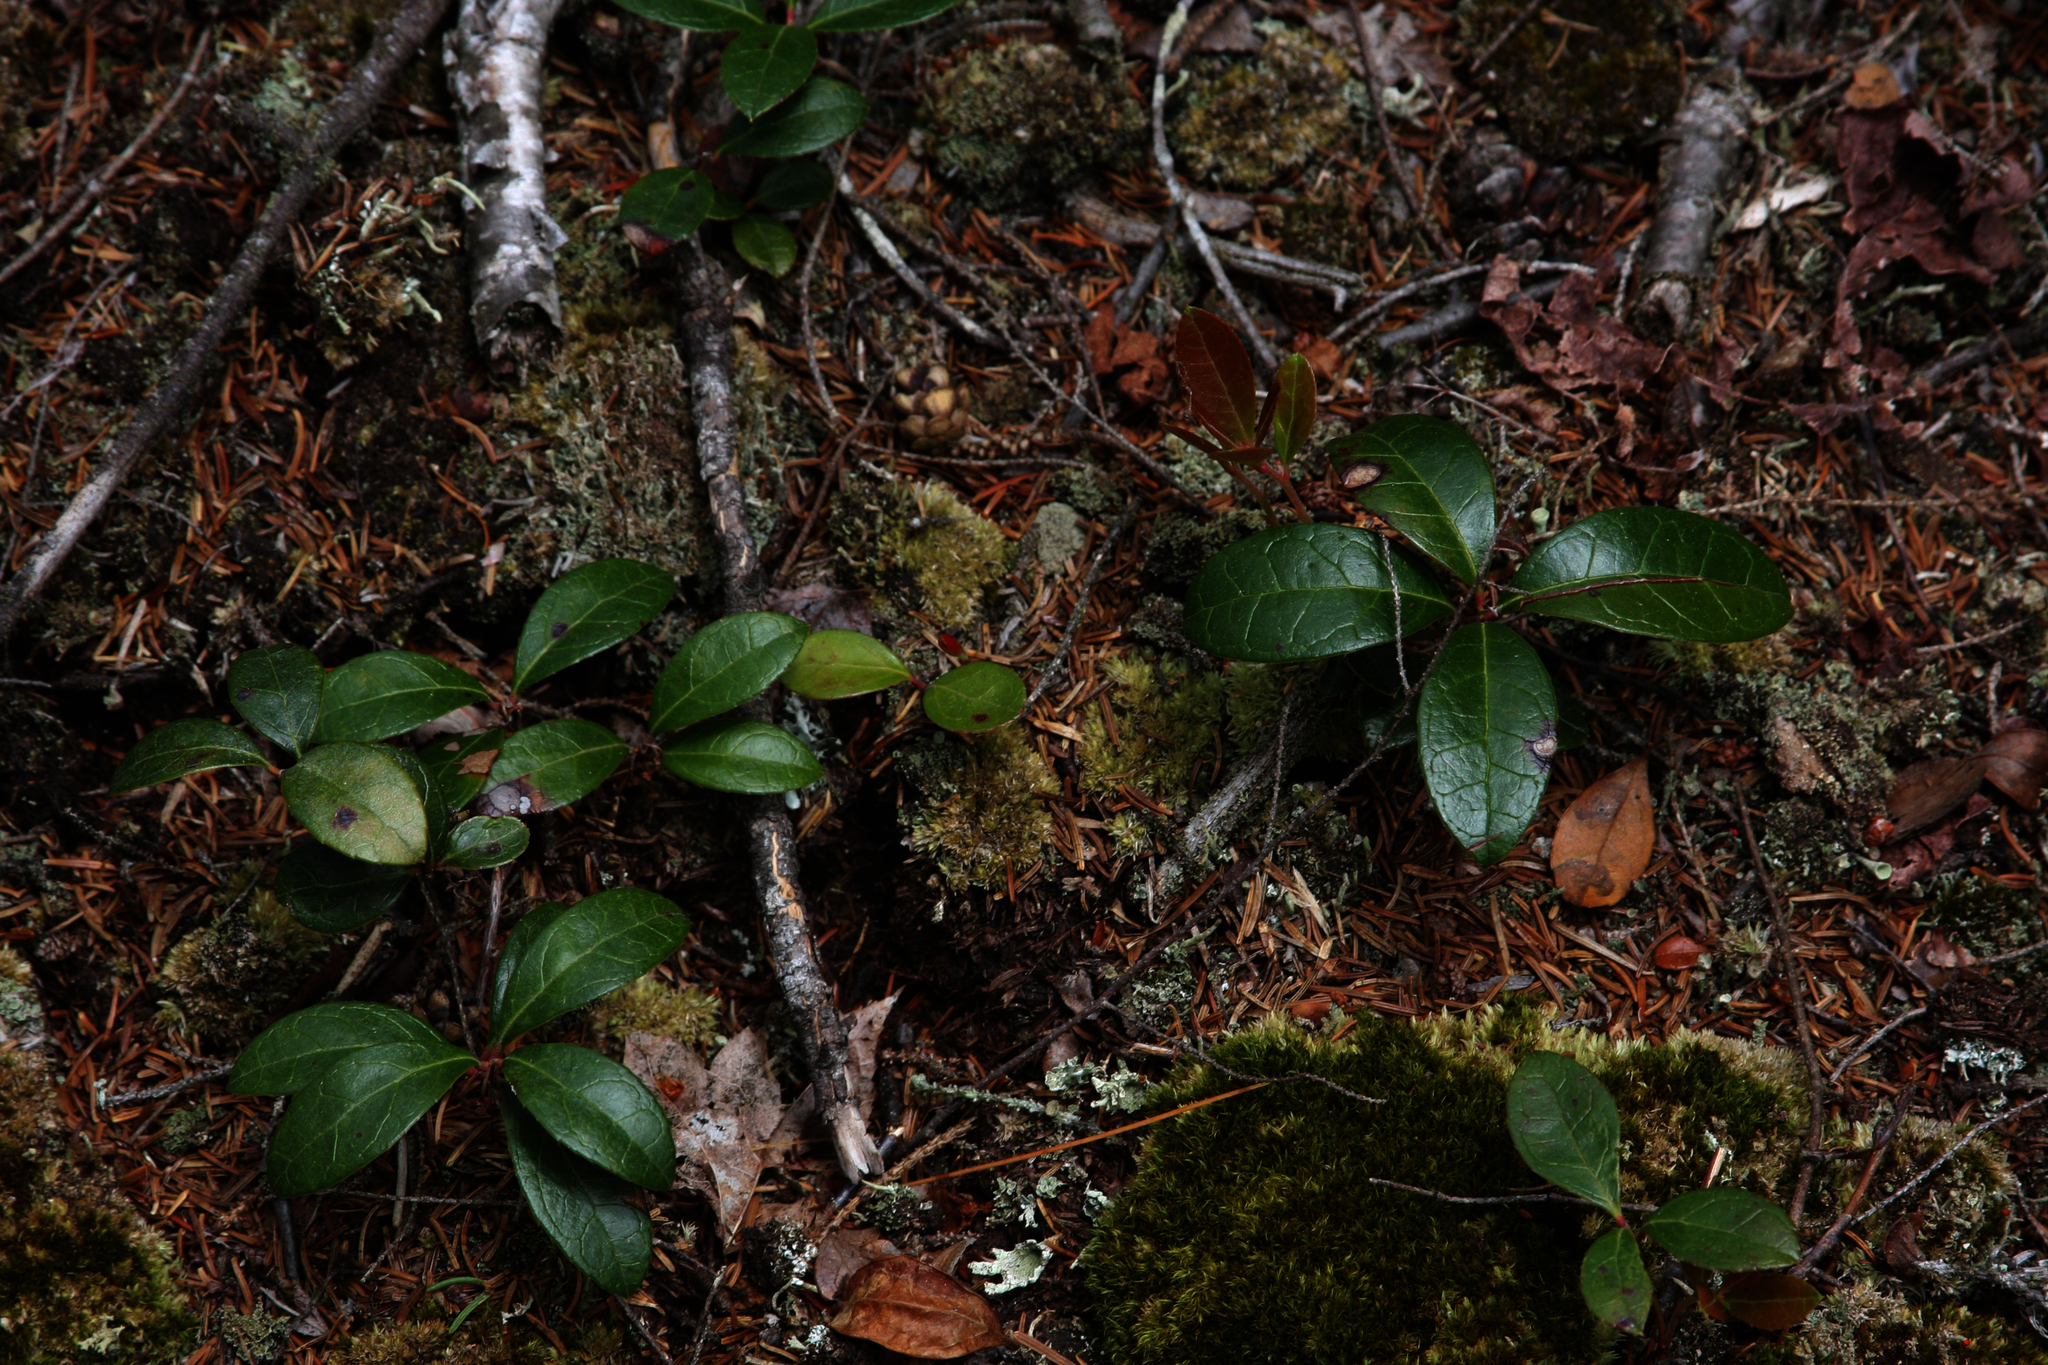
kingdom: Plantae
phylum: Tracheophyta
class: Magnoliopsida
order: Ericales
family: Ericaceae
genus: Gaultheria
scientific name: Gaultheria procumbens
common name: Checkerberry
